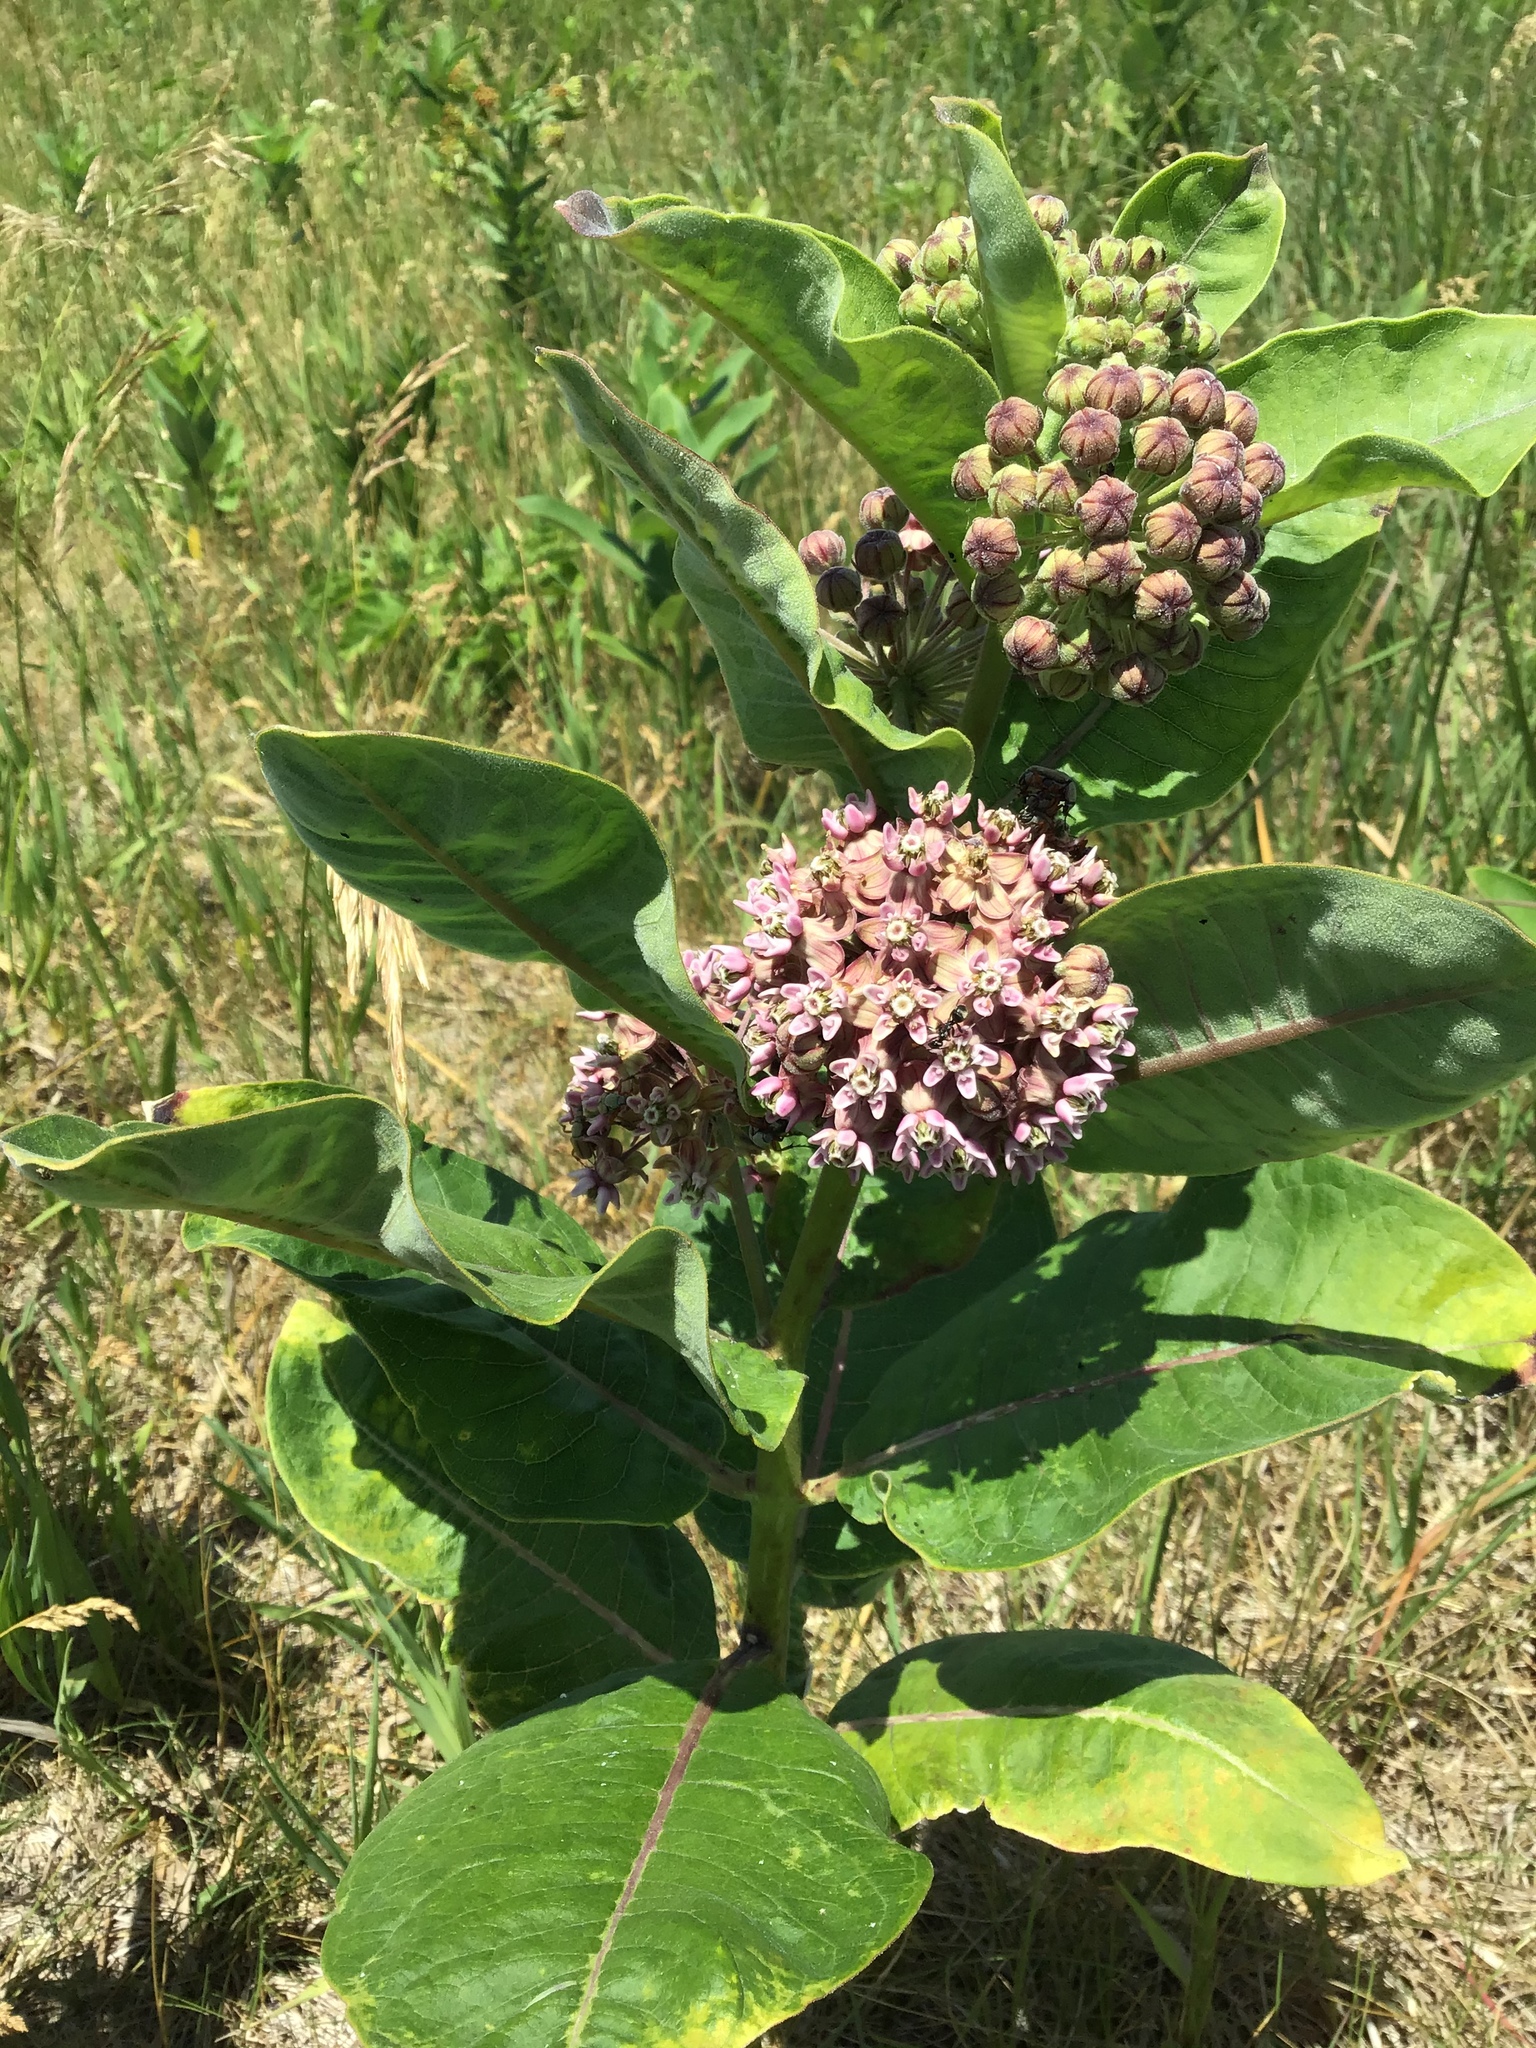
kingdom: Plantae
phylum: Tracheophyta
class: Magnoliopsida
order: Gentianales
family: Apocynaceae
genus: Asclepias
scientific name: Asclepias syriaca
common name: Common milkweed
